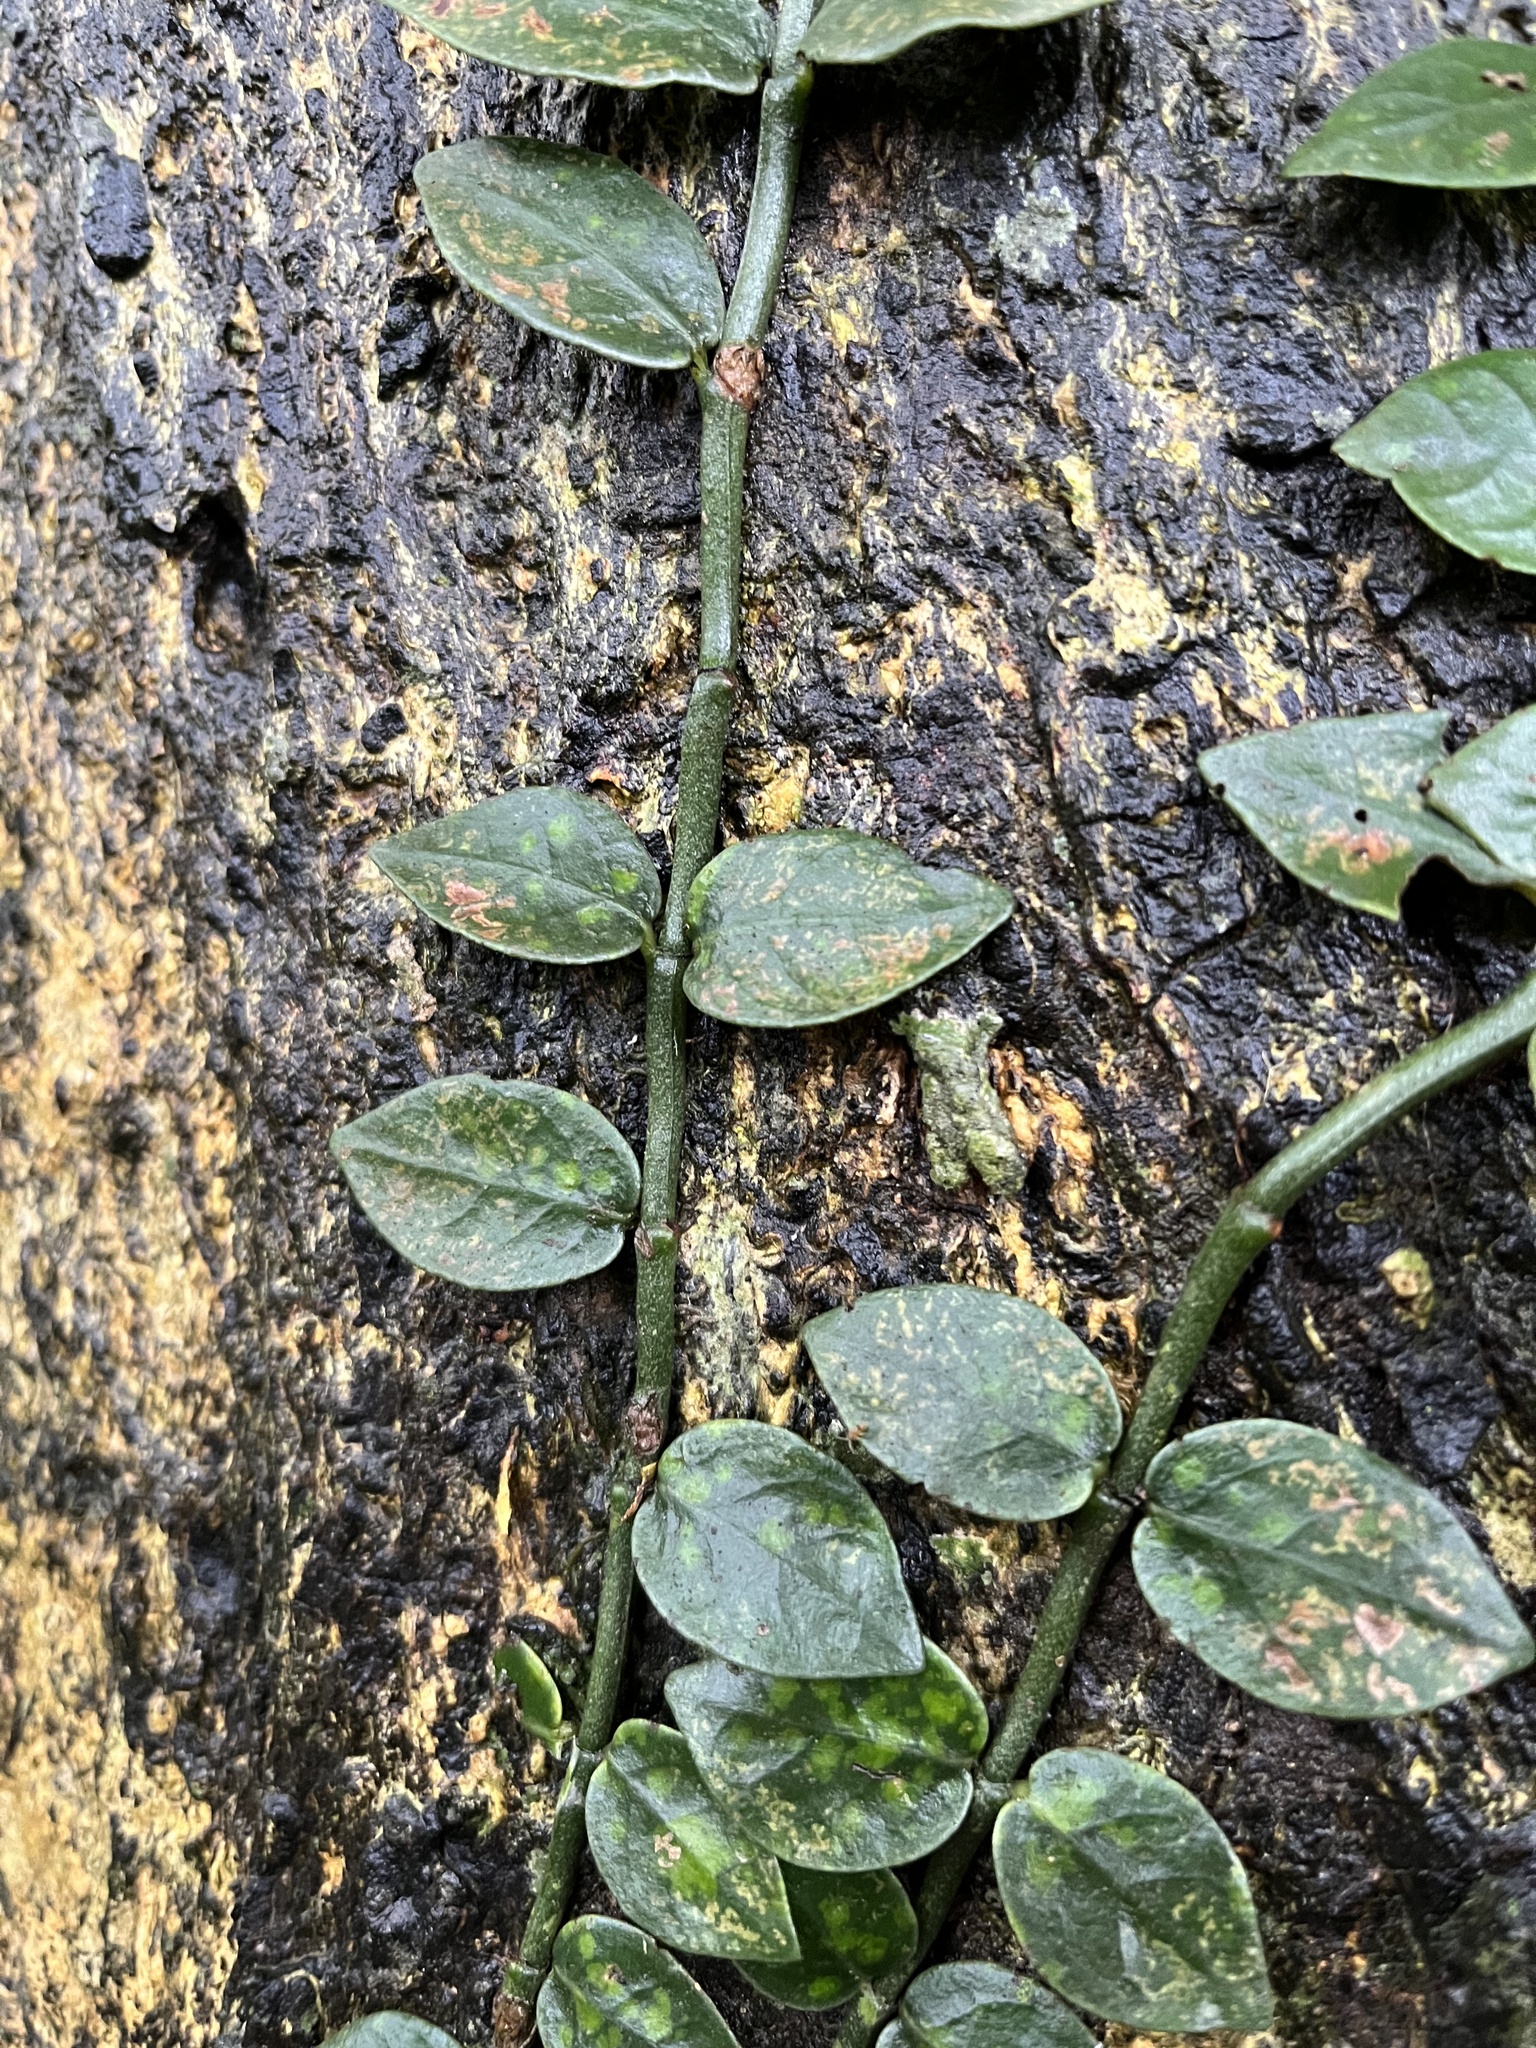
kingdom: Plantae
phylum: Tracheophyta
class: Magnoliopsida
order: Gentianales
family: Rubiaceae
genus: Psychotria
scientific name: Psychotria serpens
